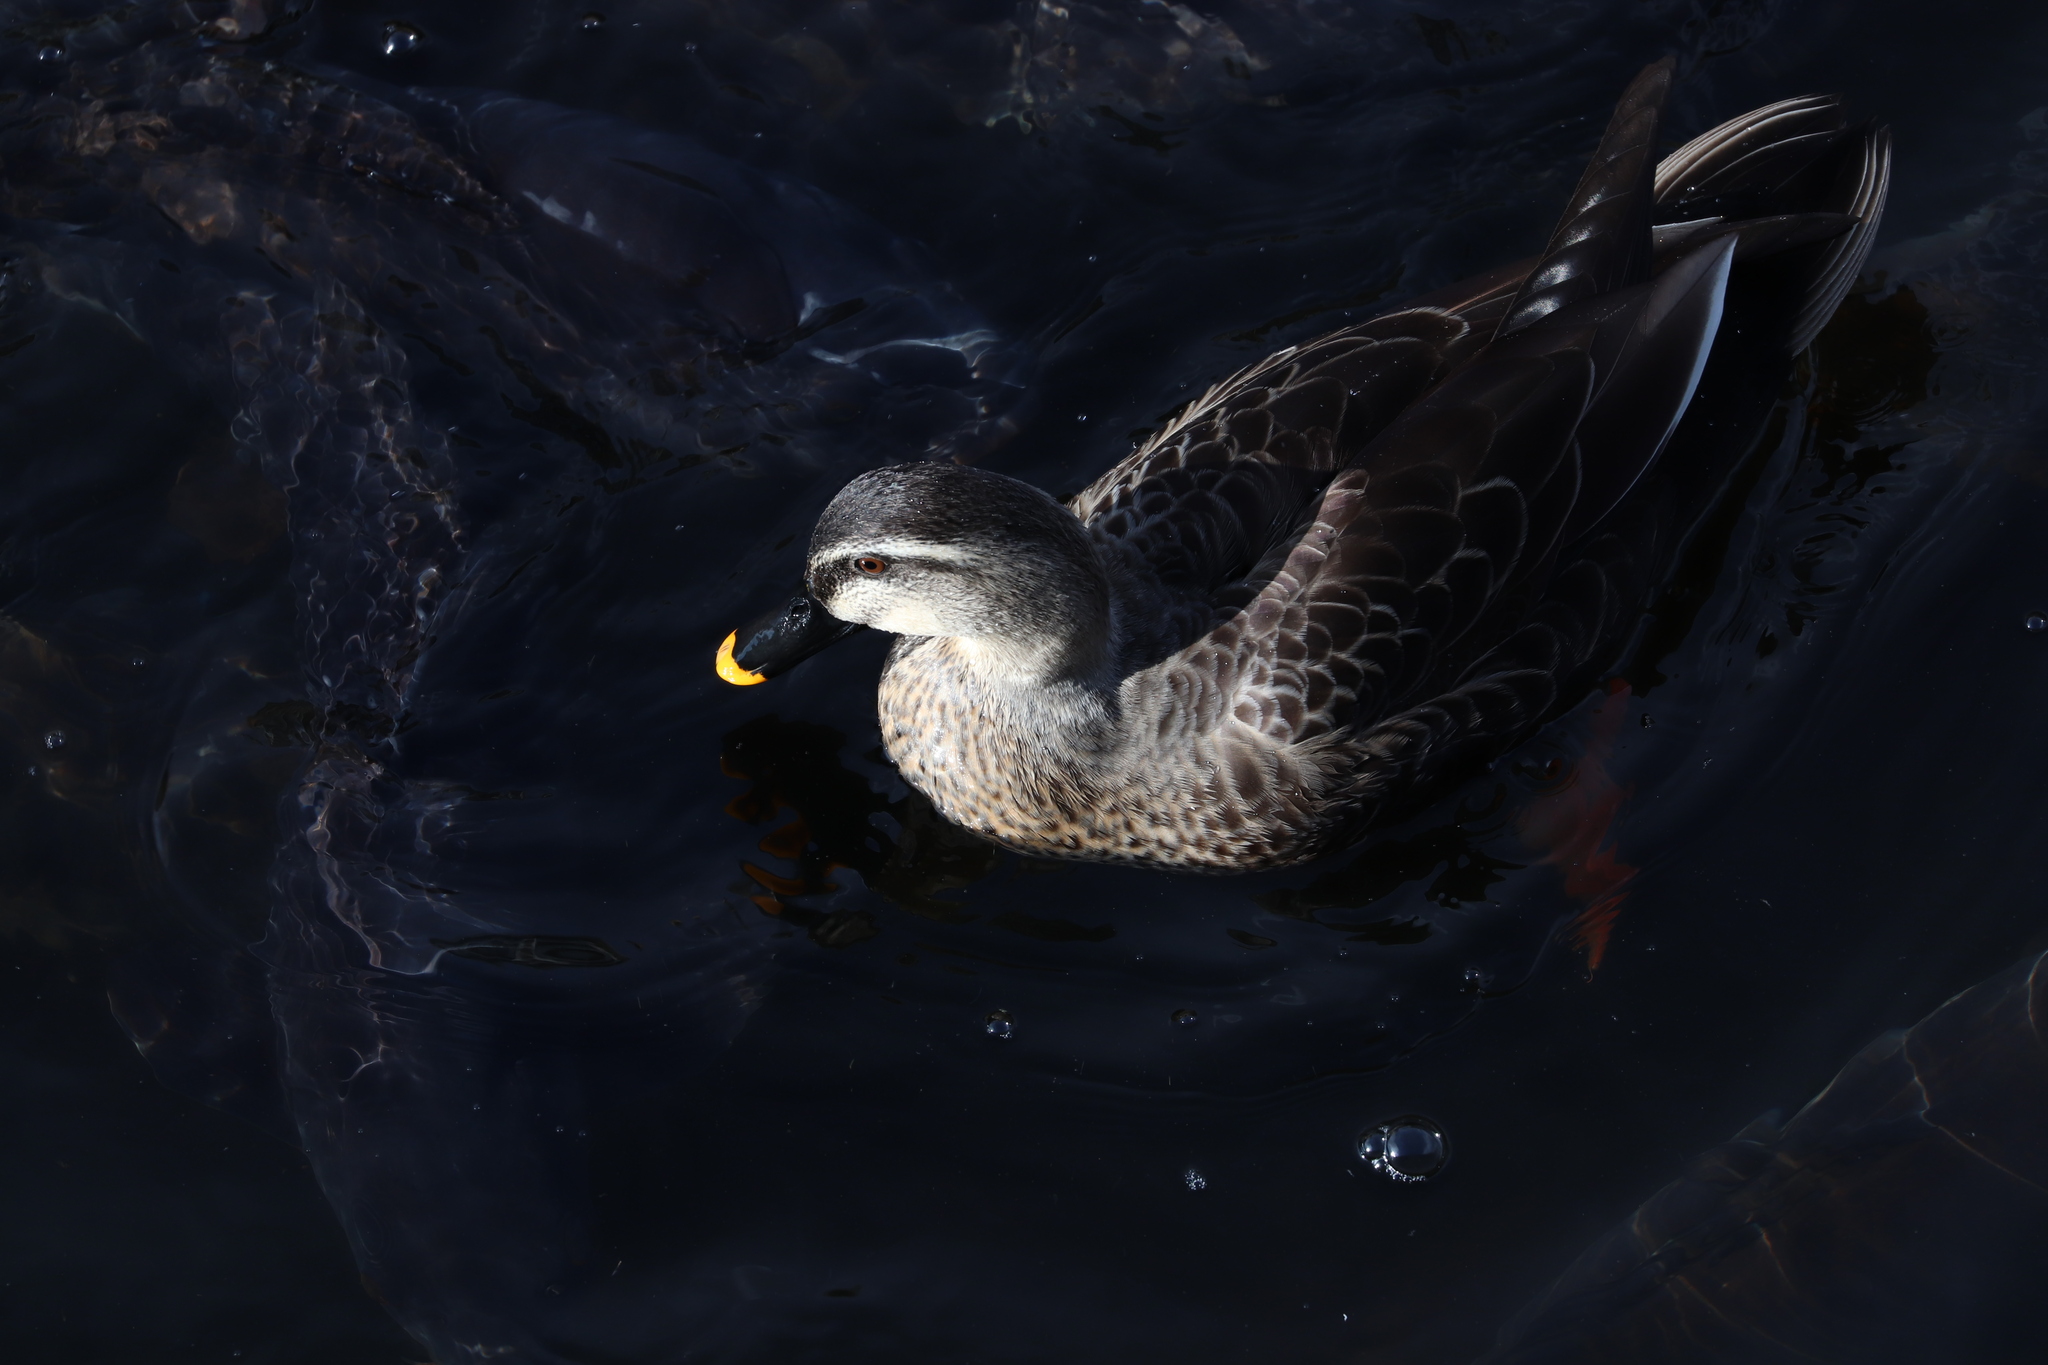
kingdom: Animalia
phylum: Chordata
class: Aves
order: Anseriformes
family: Anatidae
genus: Anas
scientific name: Anas zonorhyncha
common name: Eastern spot-billed duck
